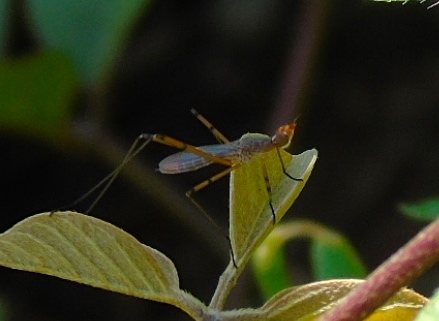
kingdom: Animalia
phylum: Arthropoda
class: Insecta
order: Diptera
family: Micropezidae
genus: Micropeza
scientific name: Micropeza stigmatica
